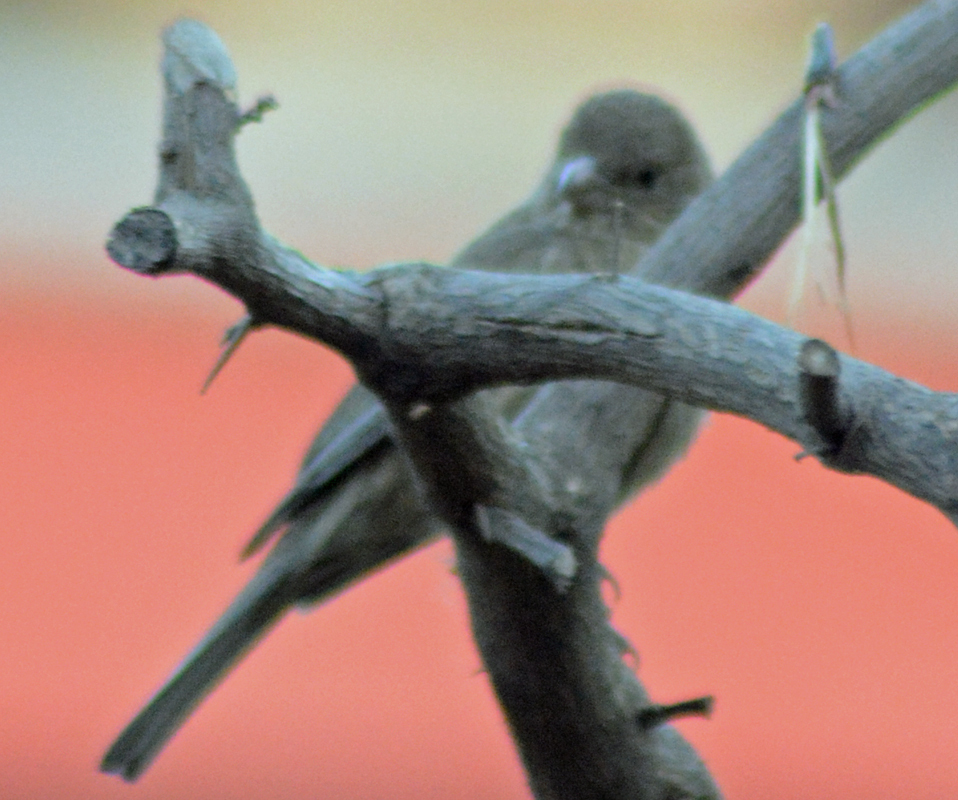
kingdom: Animalia
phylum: Chordata
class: Aves
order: Passeriformes
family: Fringillidae
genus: Haemorhous
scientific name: Haemorhous mexicanus
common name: House finch
